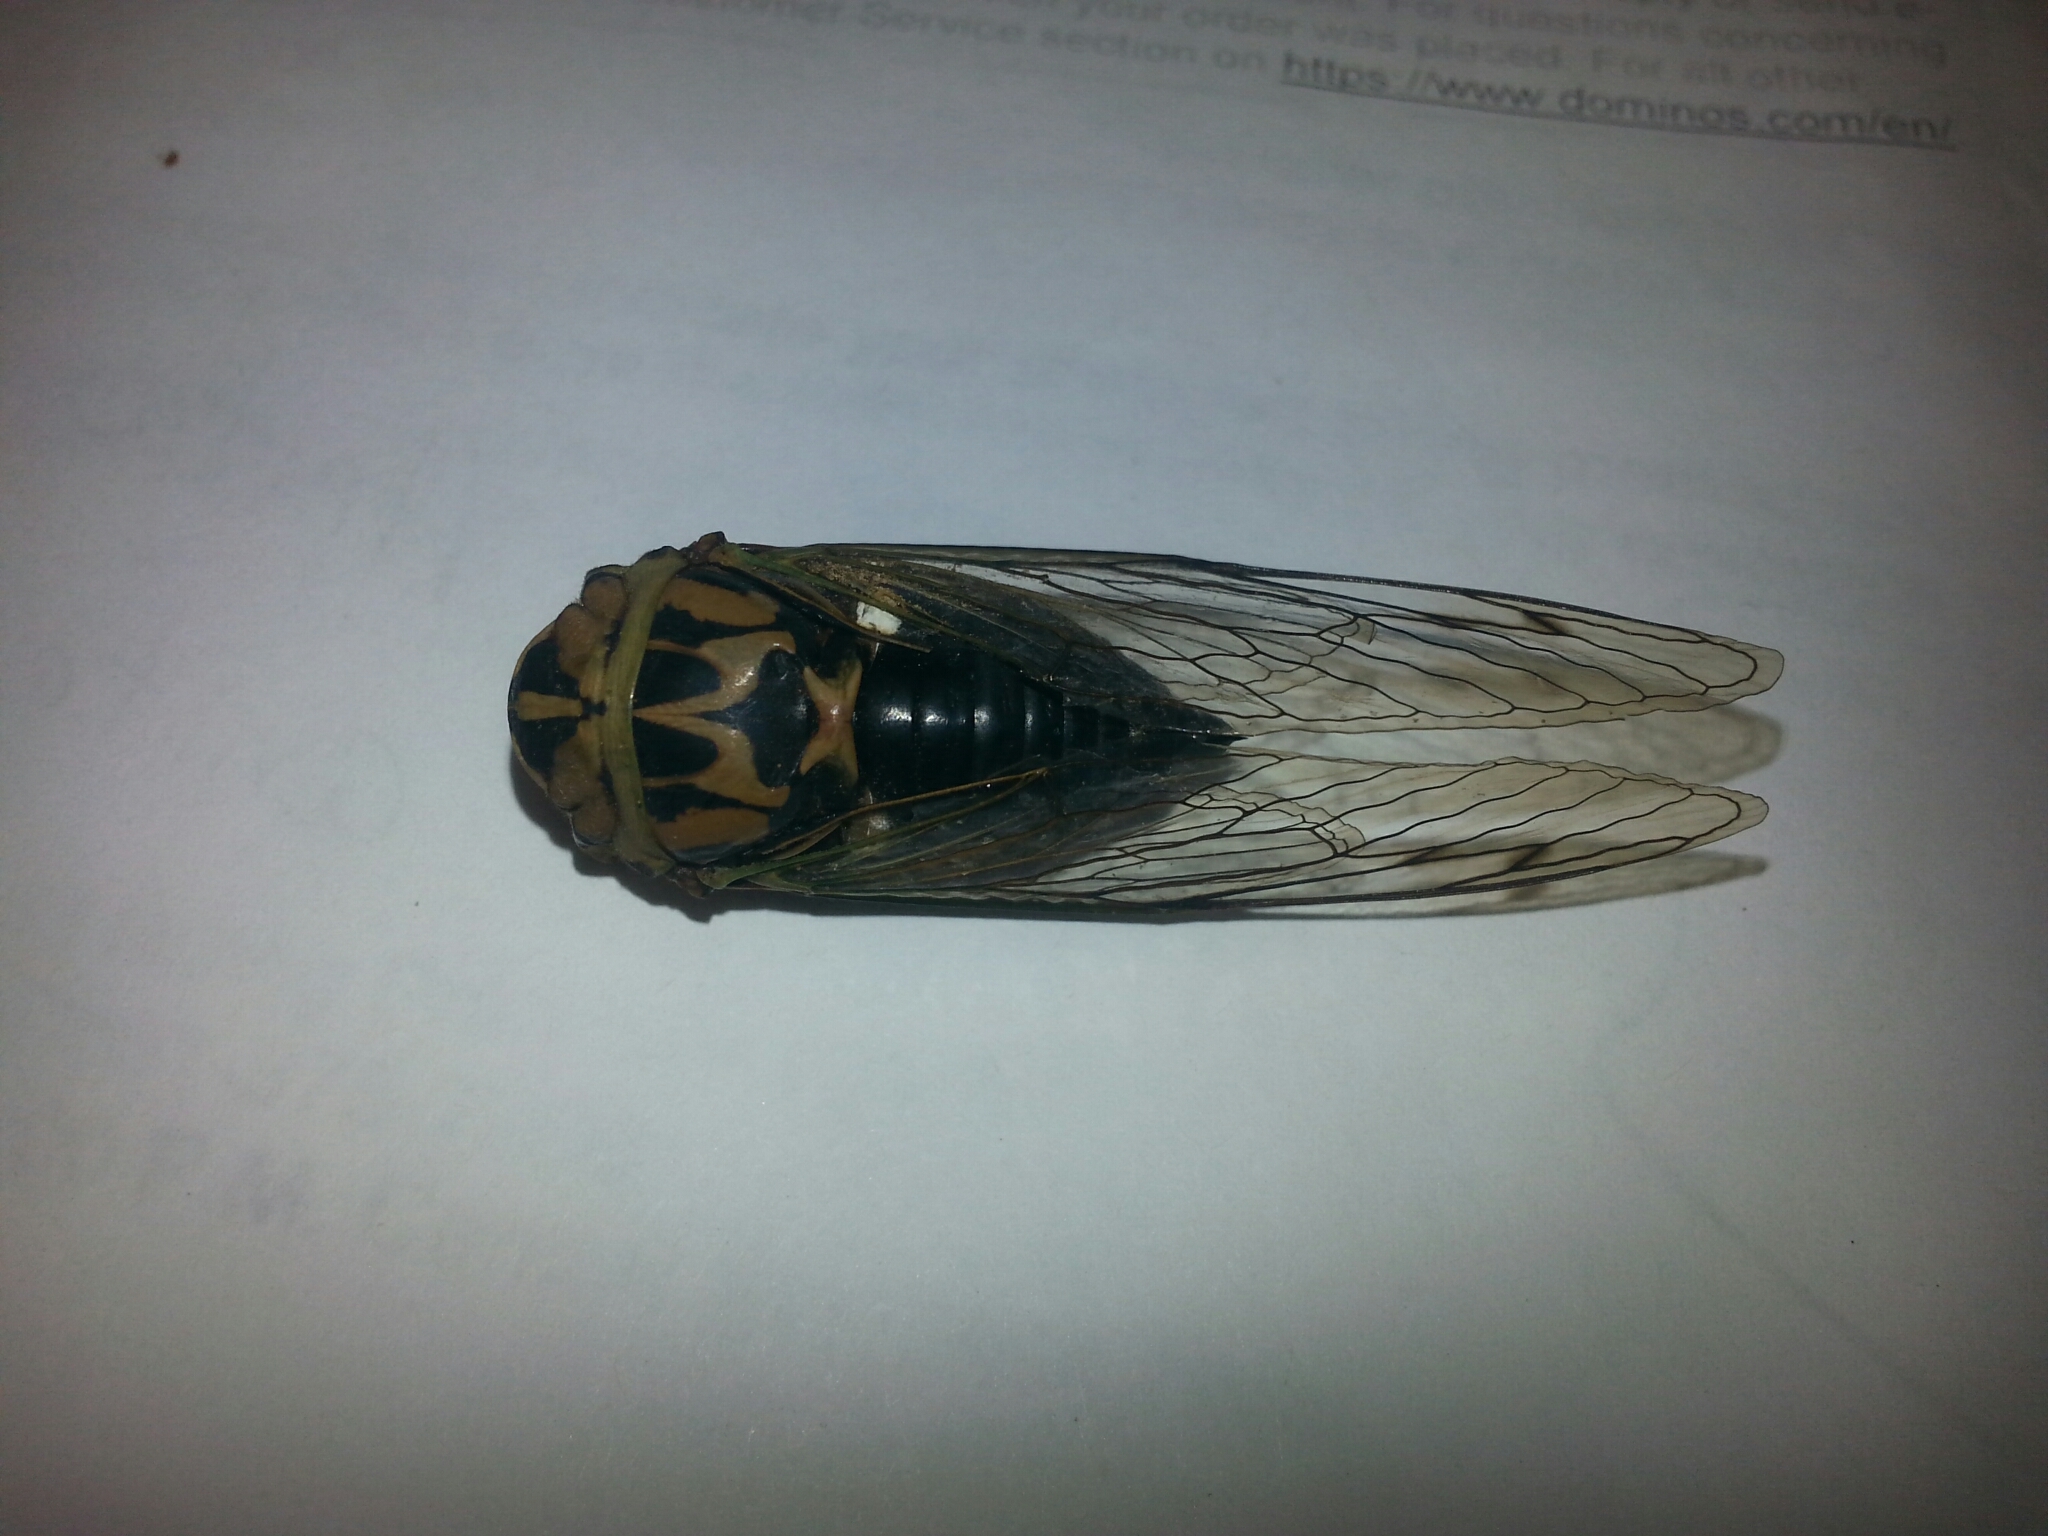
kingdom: Animalia
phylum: Arthropoda
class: Insecta
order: Hemiptera
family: Cicadidae
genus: Neotibicen
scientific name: Neotibicen pruinosus
